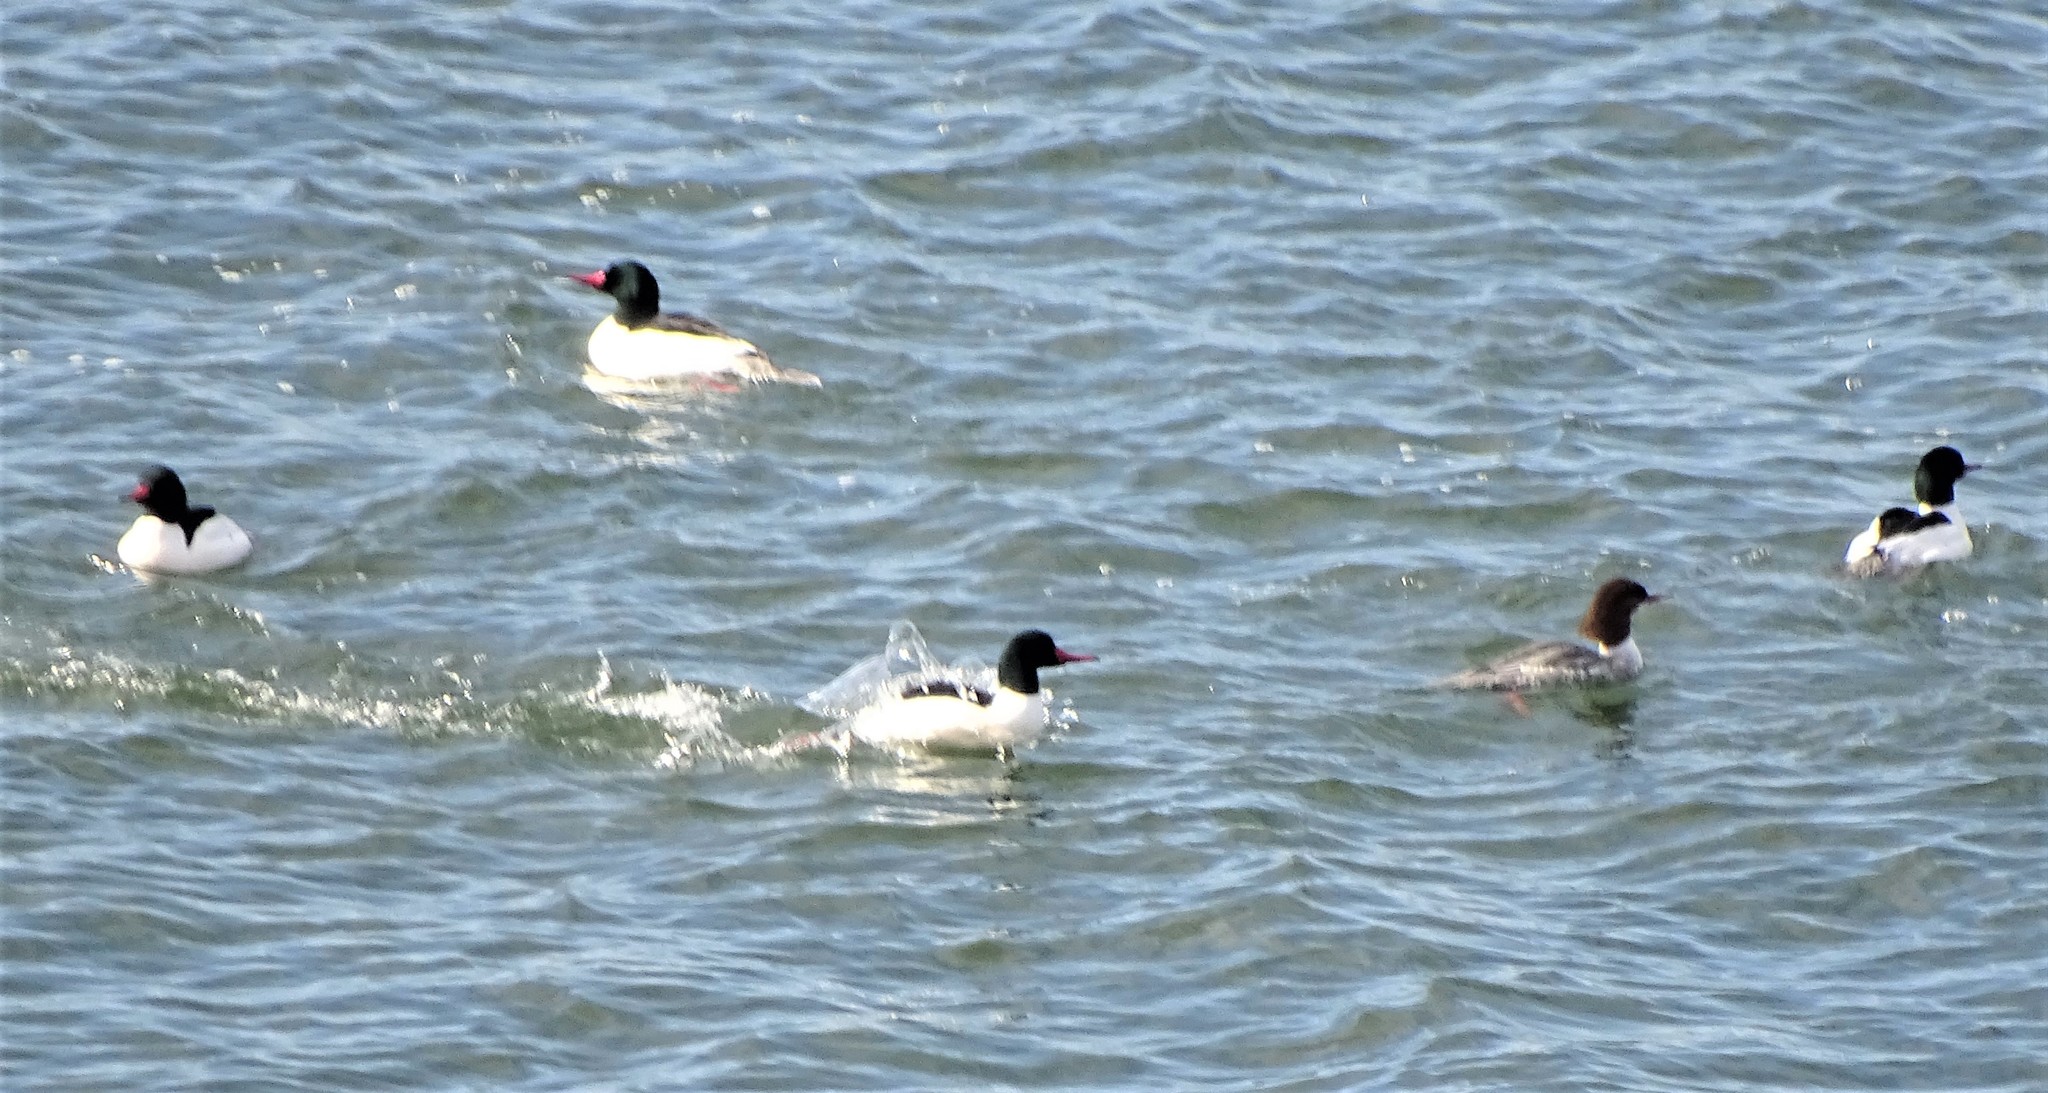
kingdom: Animalia
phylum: Chordata
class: Aves
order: Anseriformes
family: Anatidae
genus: Mergus
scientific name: Mergus merganser
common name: Common merganser
